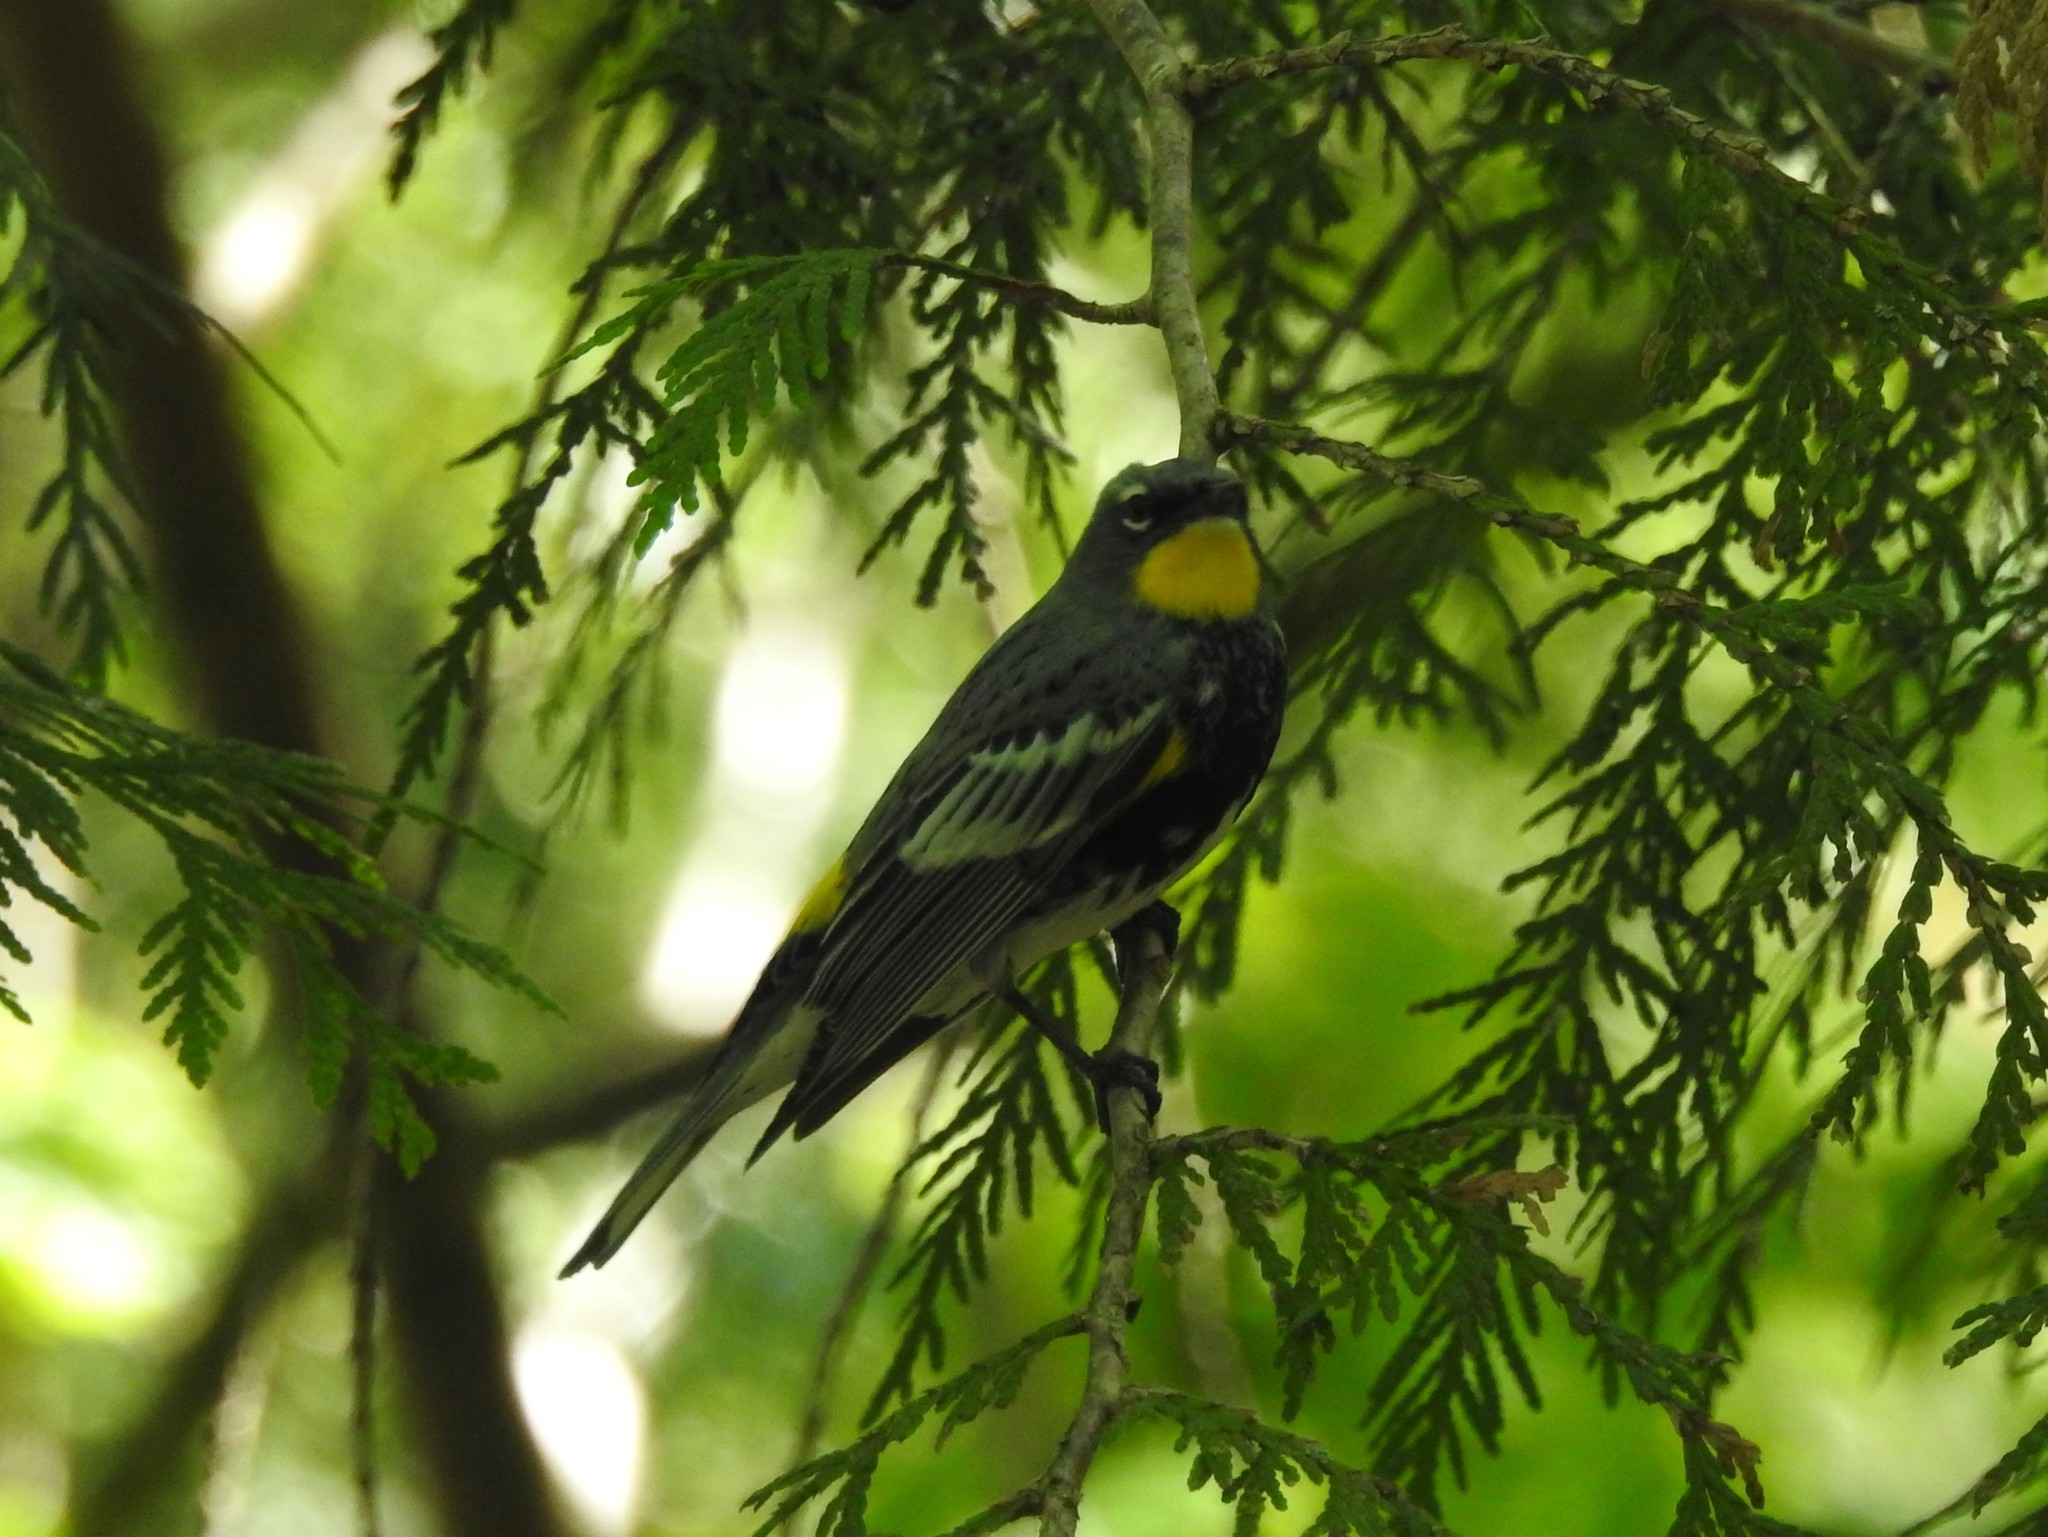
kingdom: Animalia
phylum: Chordata
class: Aves
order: Passeriformes
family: Parulidae
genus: Setophaga
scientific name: Setophaga auduboni
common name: Audubon's warbler
